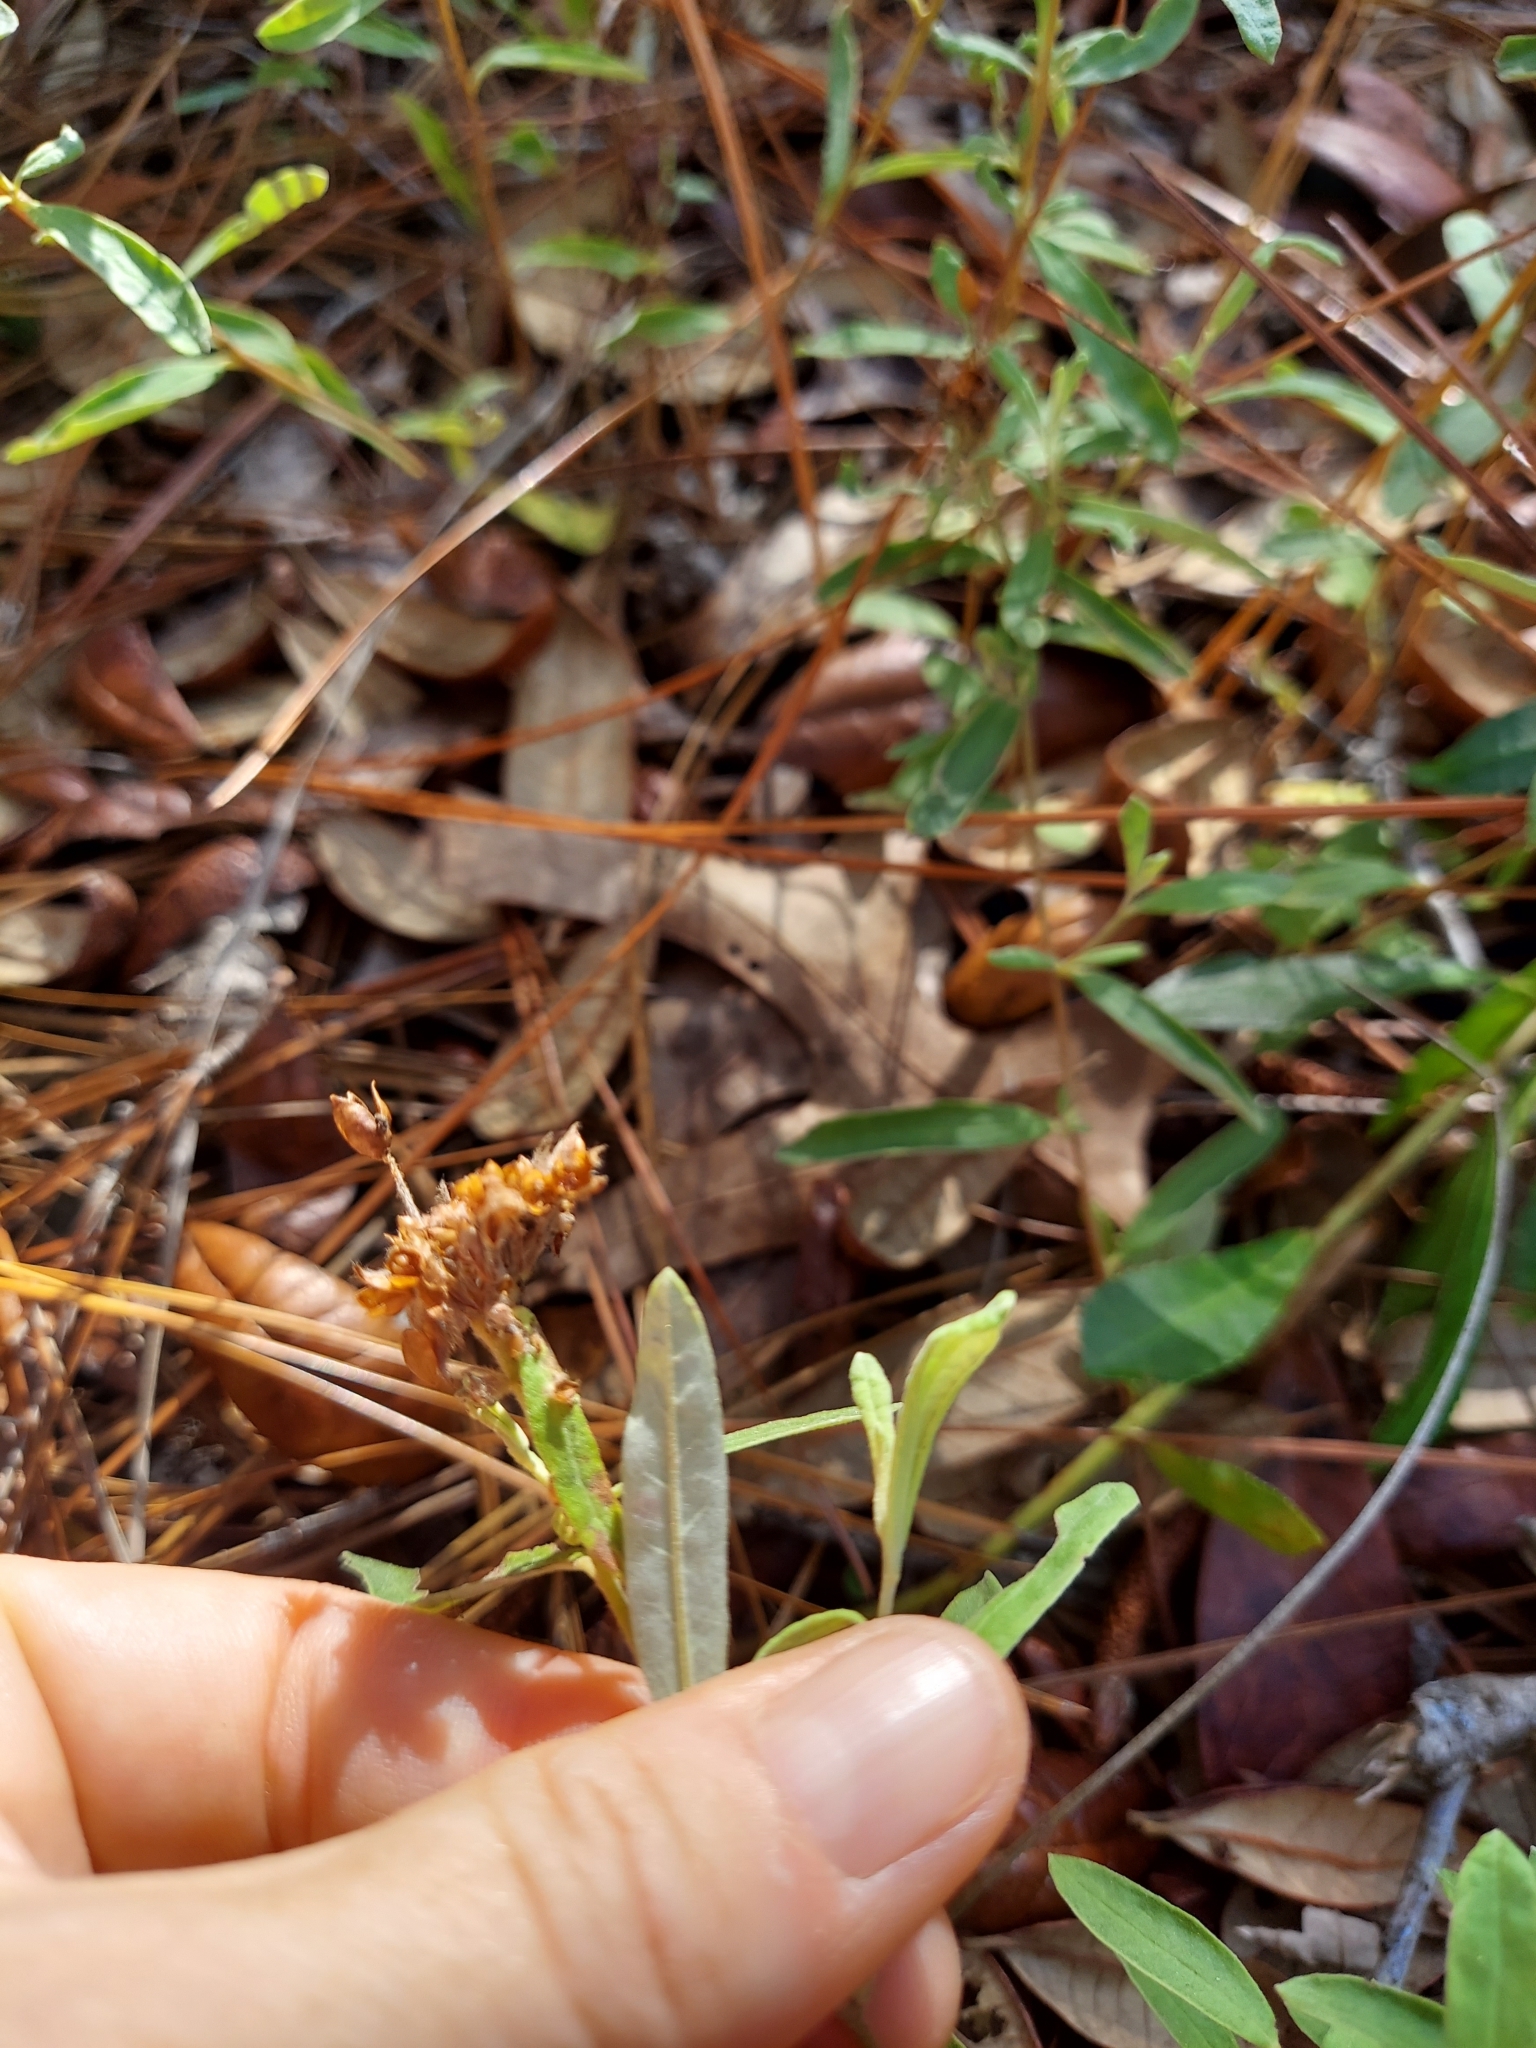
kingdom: Plantae
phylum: Tracheophyta
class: Magnoliopsida
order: Malvales
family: Cistaceae
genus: Crocanthemum
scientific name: Crocanthemum corymbosum
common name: Pinebarren sun-rose
